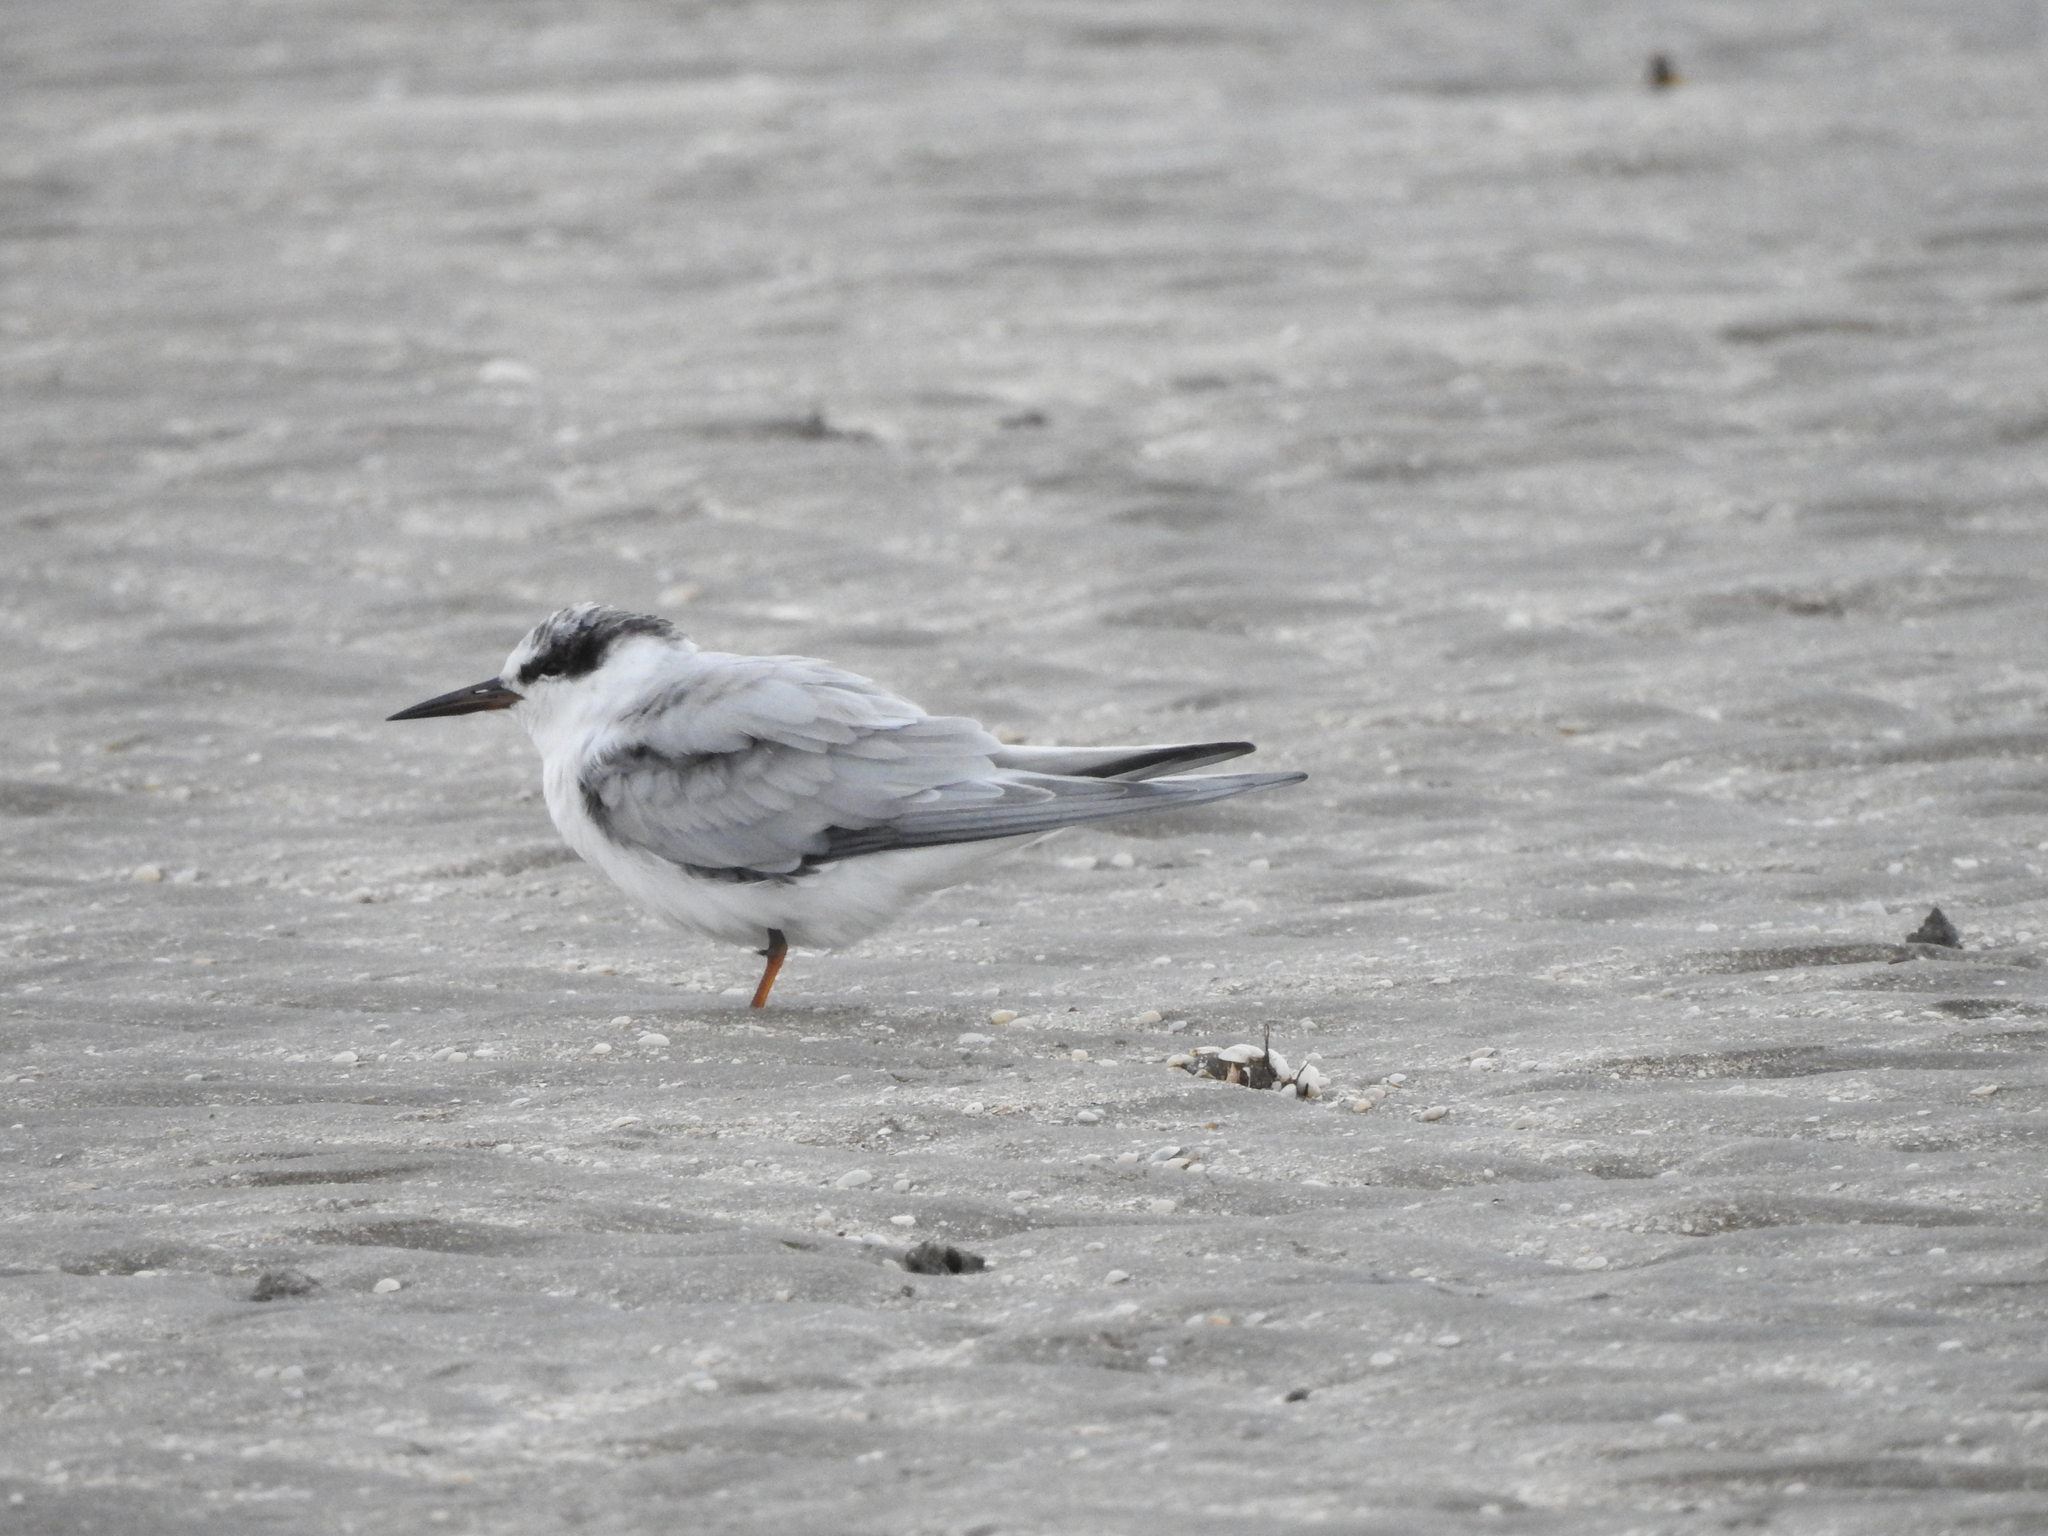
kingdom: Animalia
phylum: Chordata
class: Aves
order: Charadriiformes
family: Laridae
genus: Sterna
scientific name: Sterna forsteri
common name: Forster's tern
